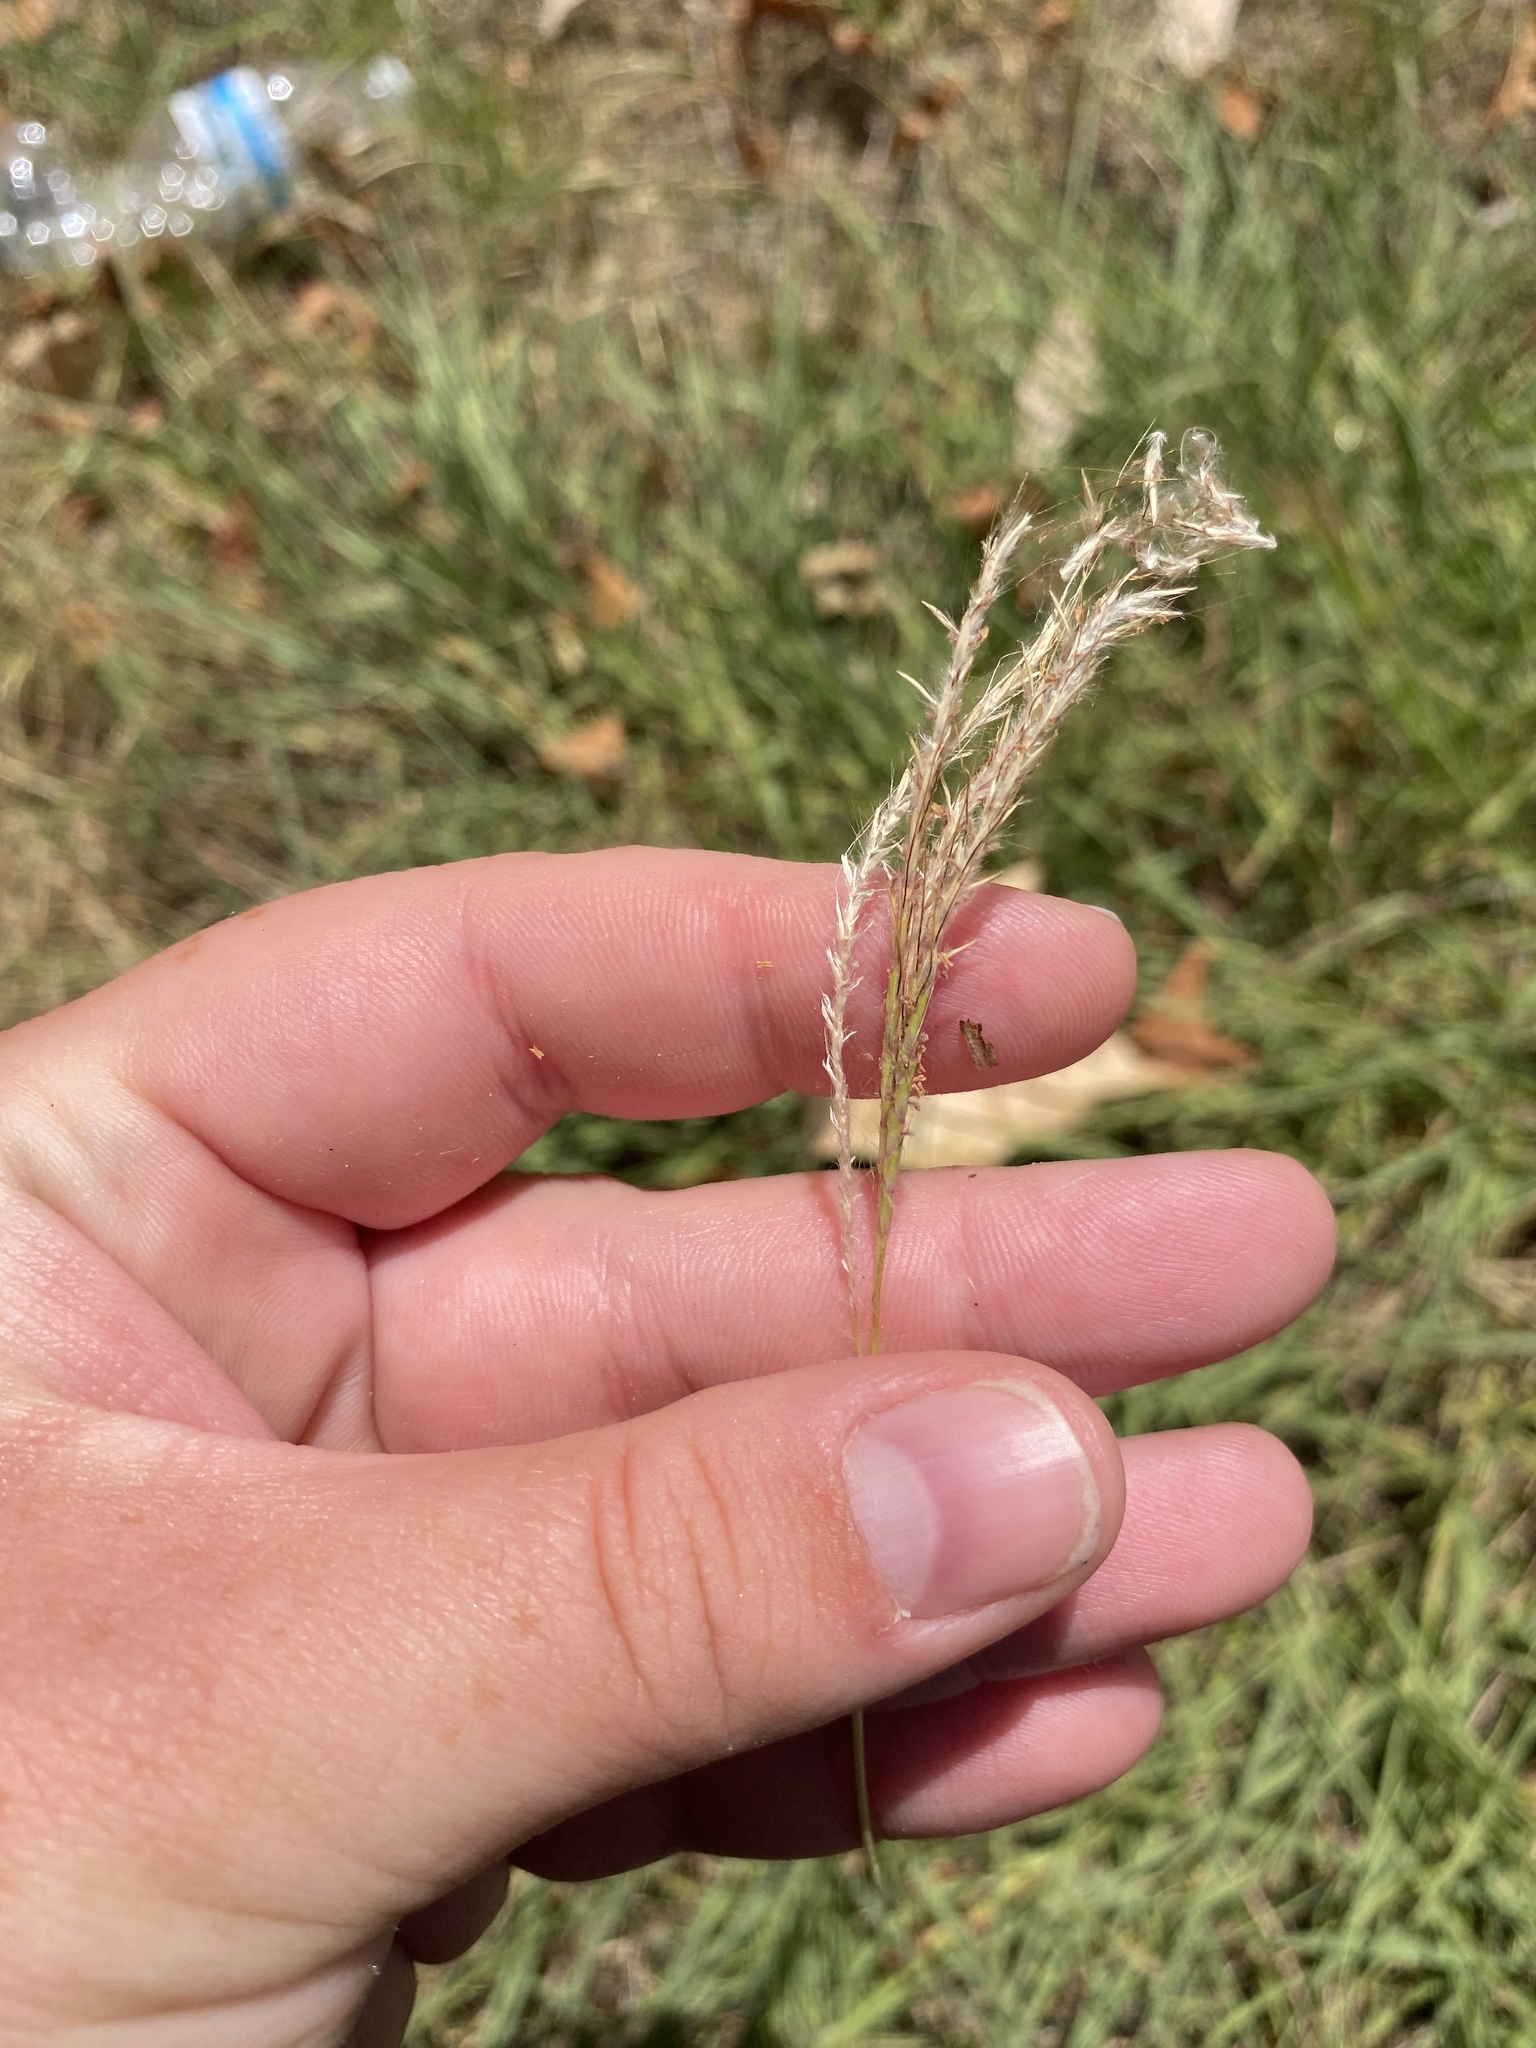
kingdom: Plantae
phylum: Tracheophyta
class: Liliopsida
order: Poales
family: Poaceae
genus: Bothriochloa
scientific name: Bothriochloa ischaemum
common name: Yellow bluestem
